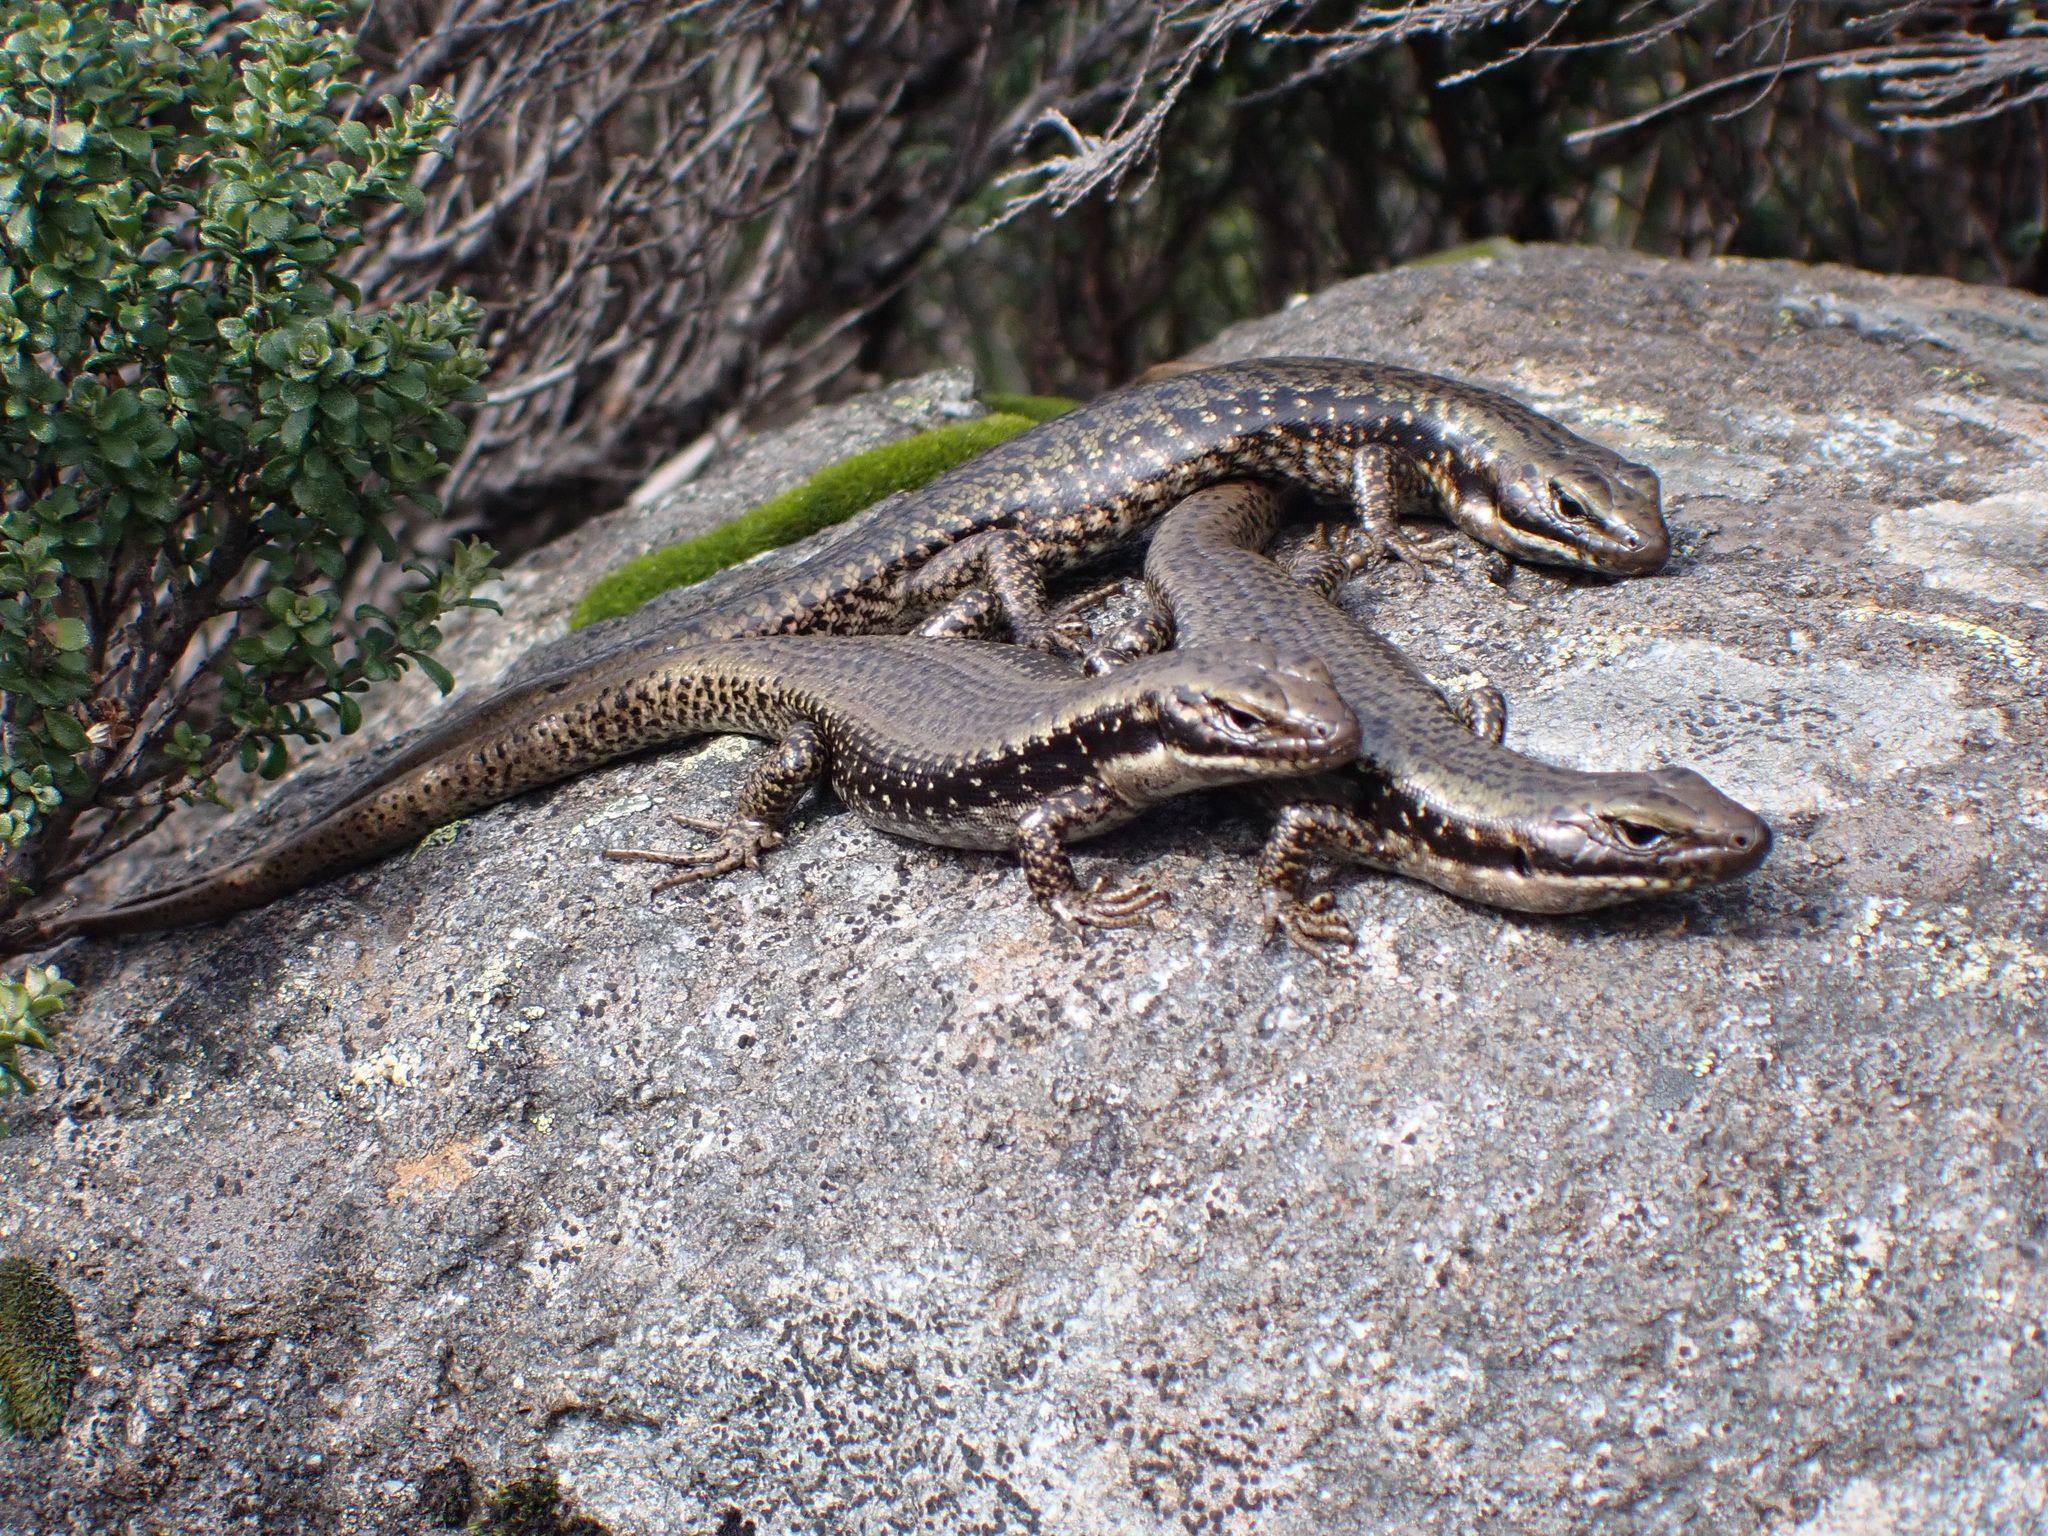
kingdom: Animalia
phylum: Chordata
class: Squamata
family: Scincidae
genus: Eulamprus
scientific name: Eulamprus tympanum
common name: Cool-temperate water-skink
